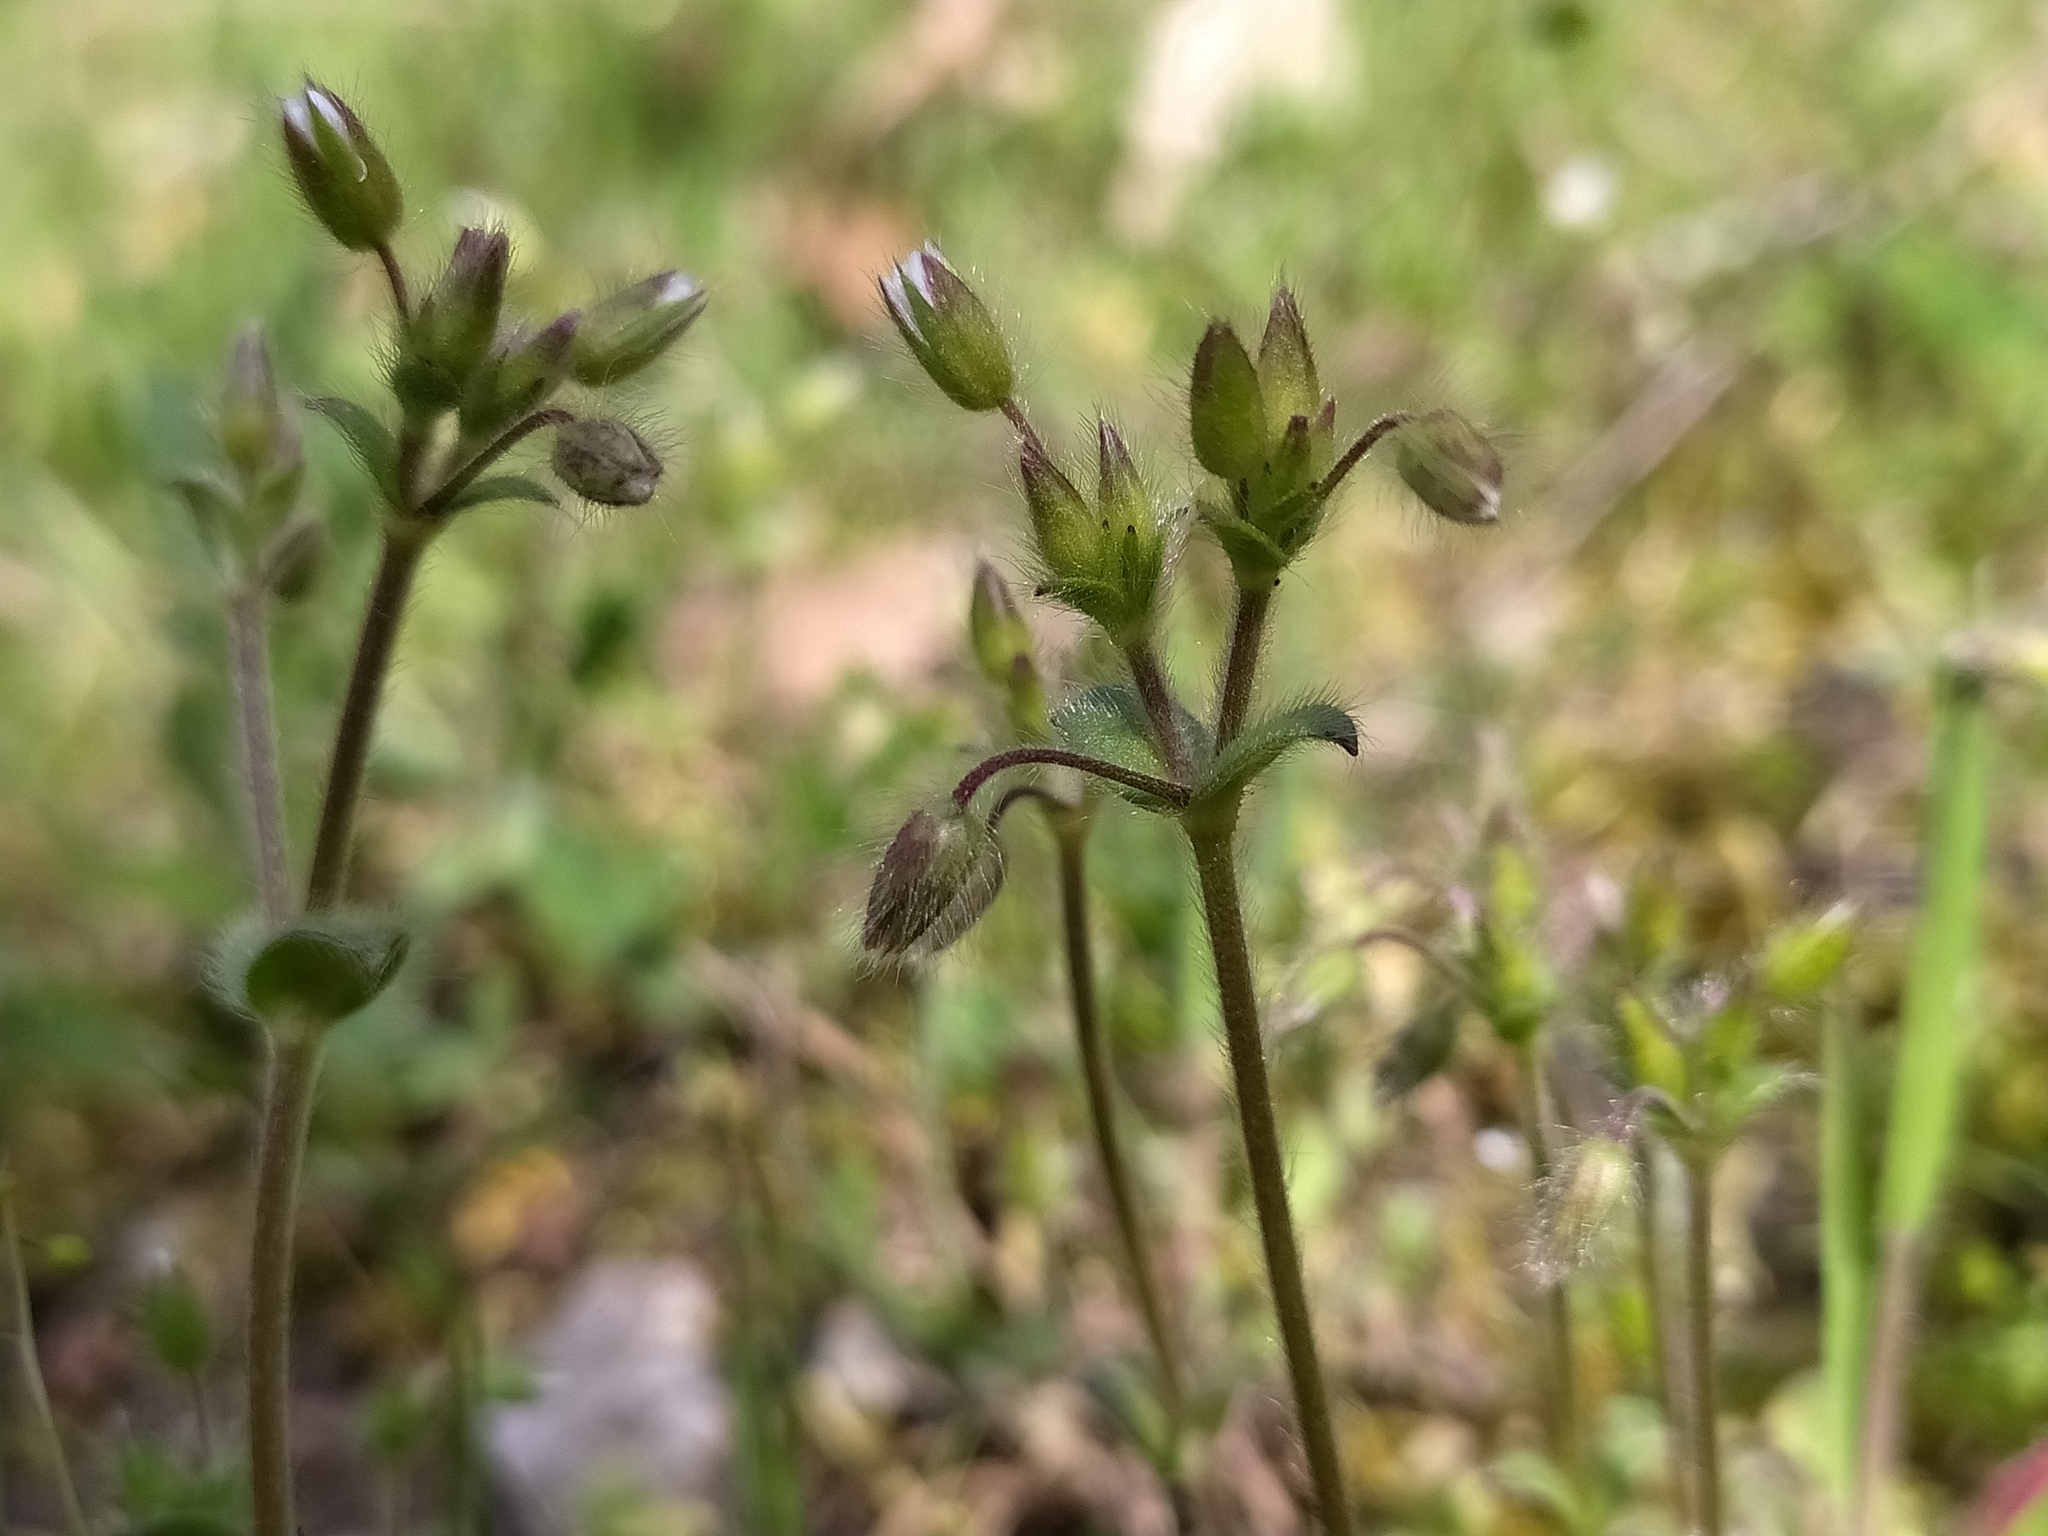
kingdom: Plantae
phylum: Tracheophyta
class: Magnoliopsida
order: Caryophyllales
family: Caryophyllaceae
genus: Cerastium
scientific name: Cerastium brachypetalum
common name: Grey mouse-ear
